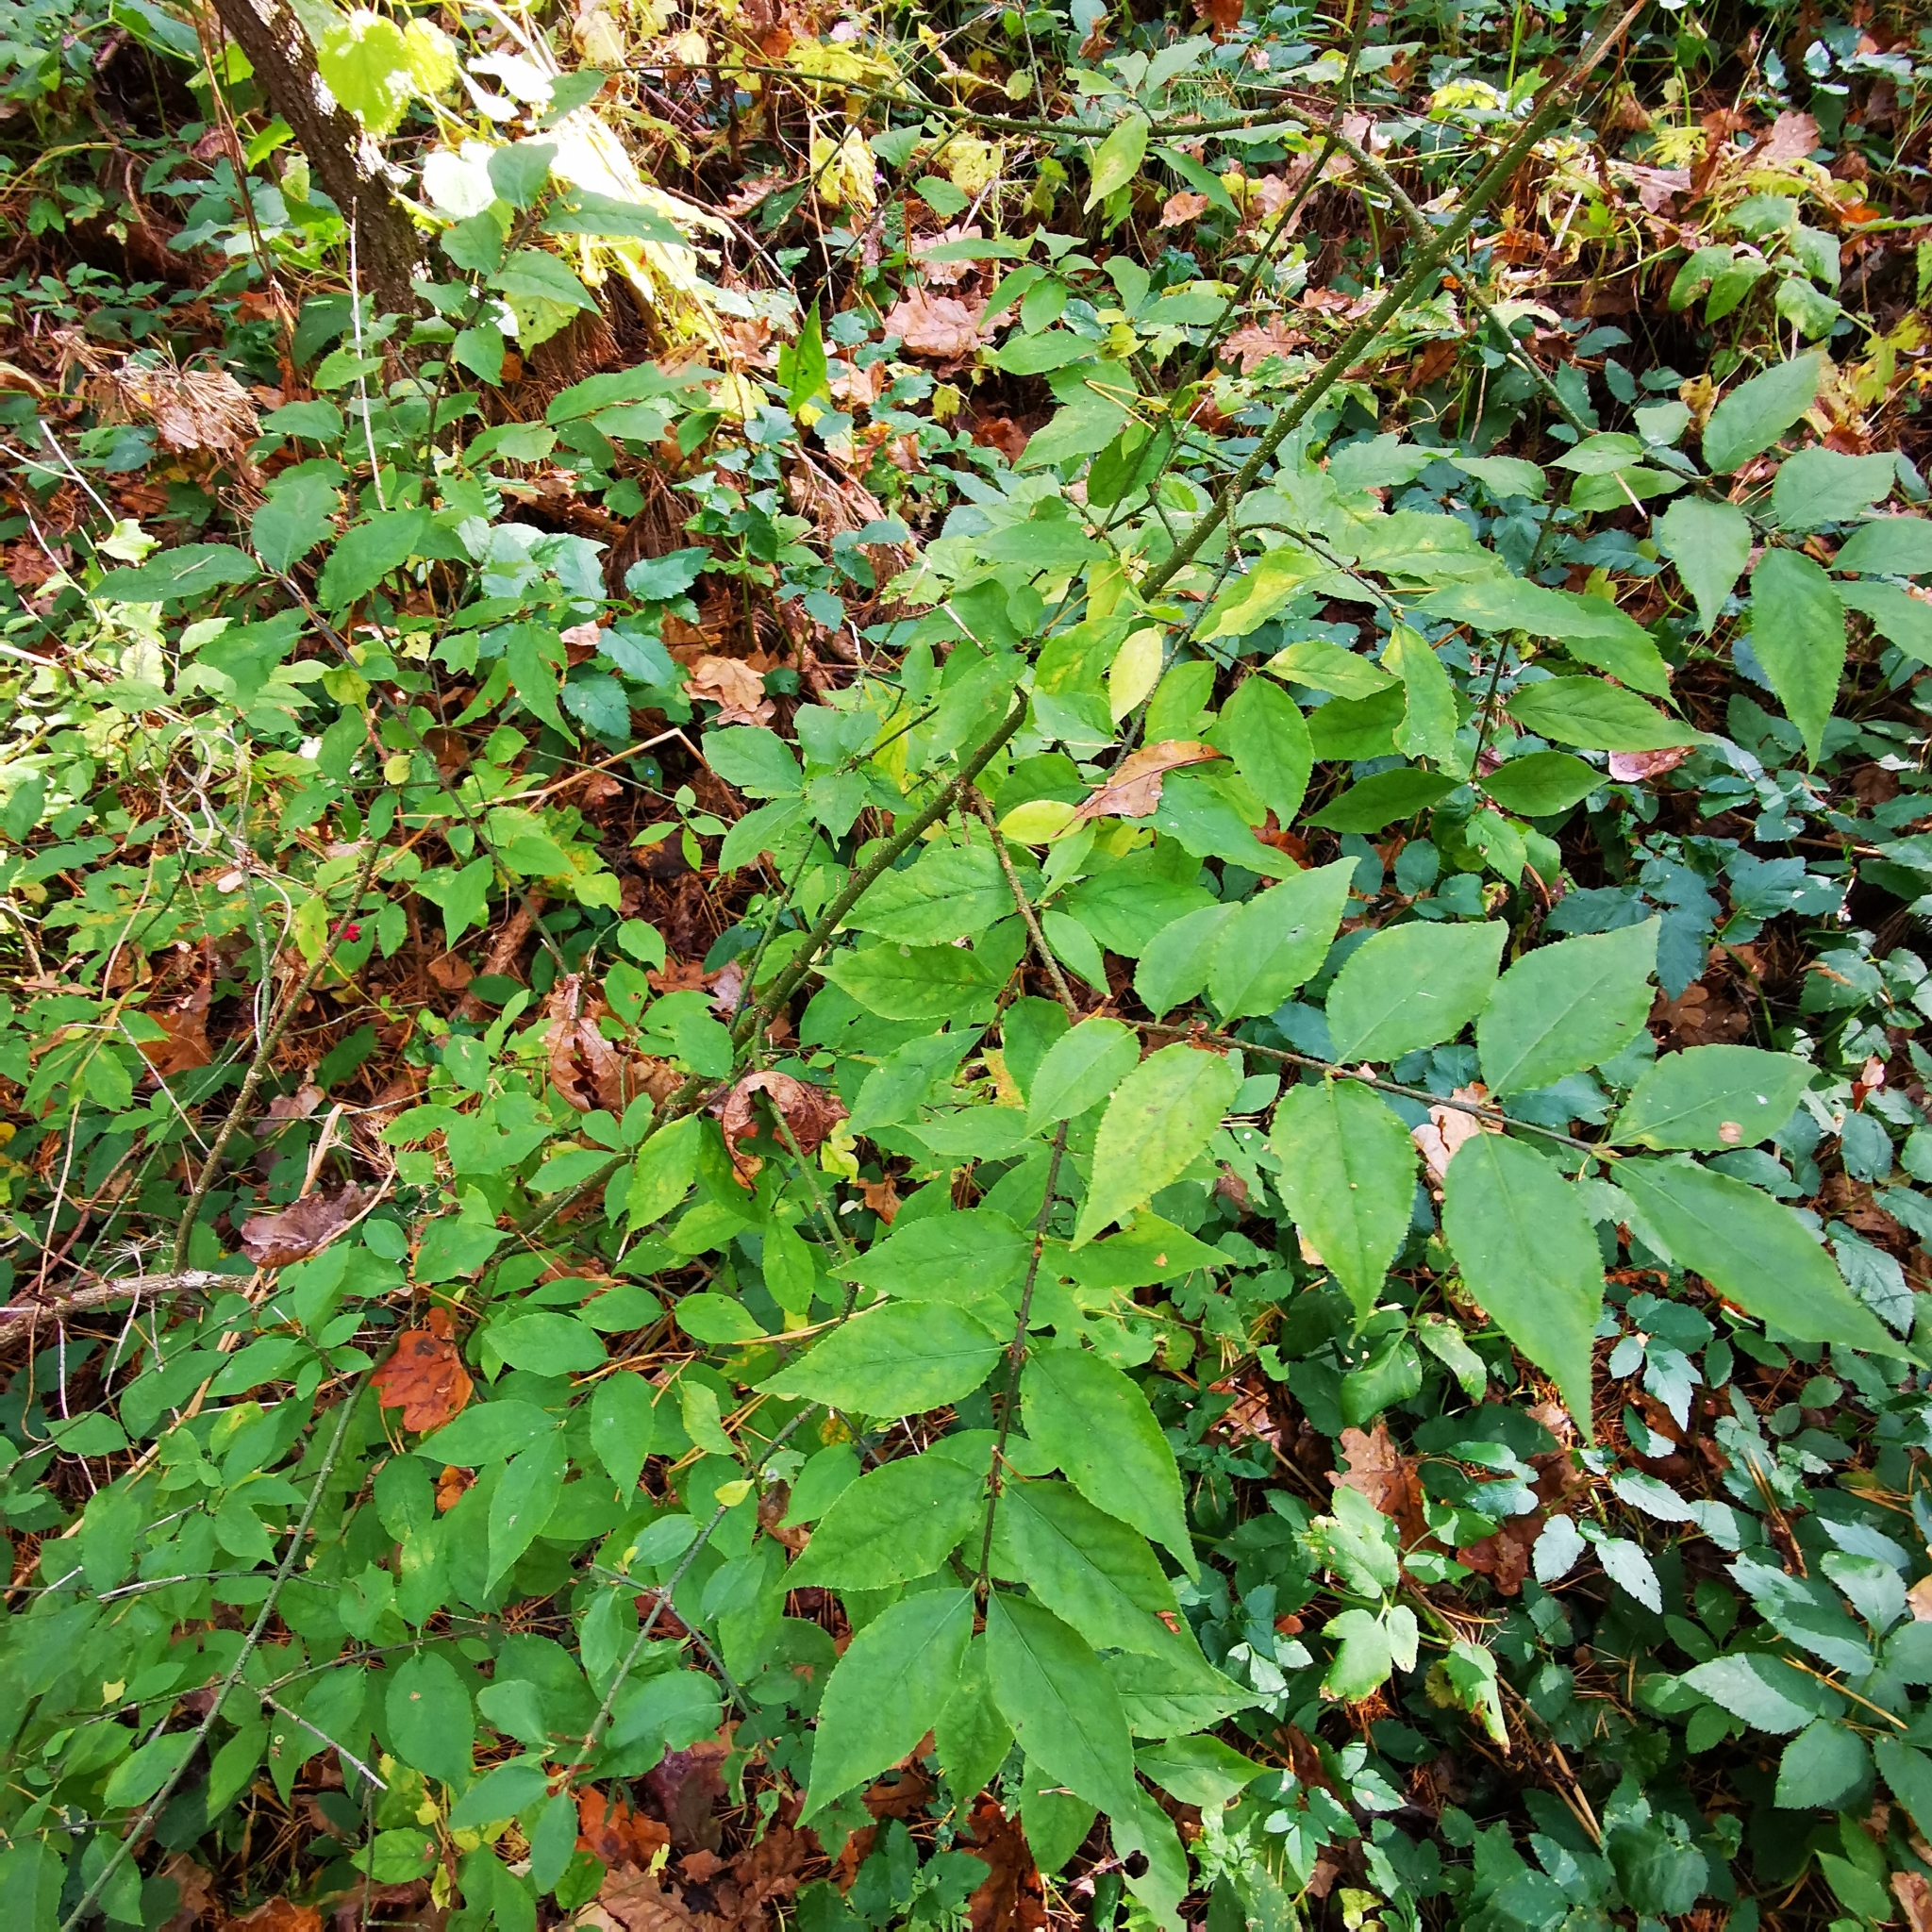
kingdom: Plantae
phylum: Tracheophyta
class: Magnoliopsida
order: Celastrales
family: Celastraceae
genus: Euonymus
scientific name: Euonymus verrucosus
